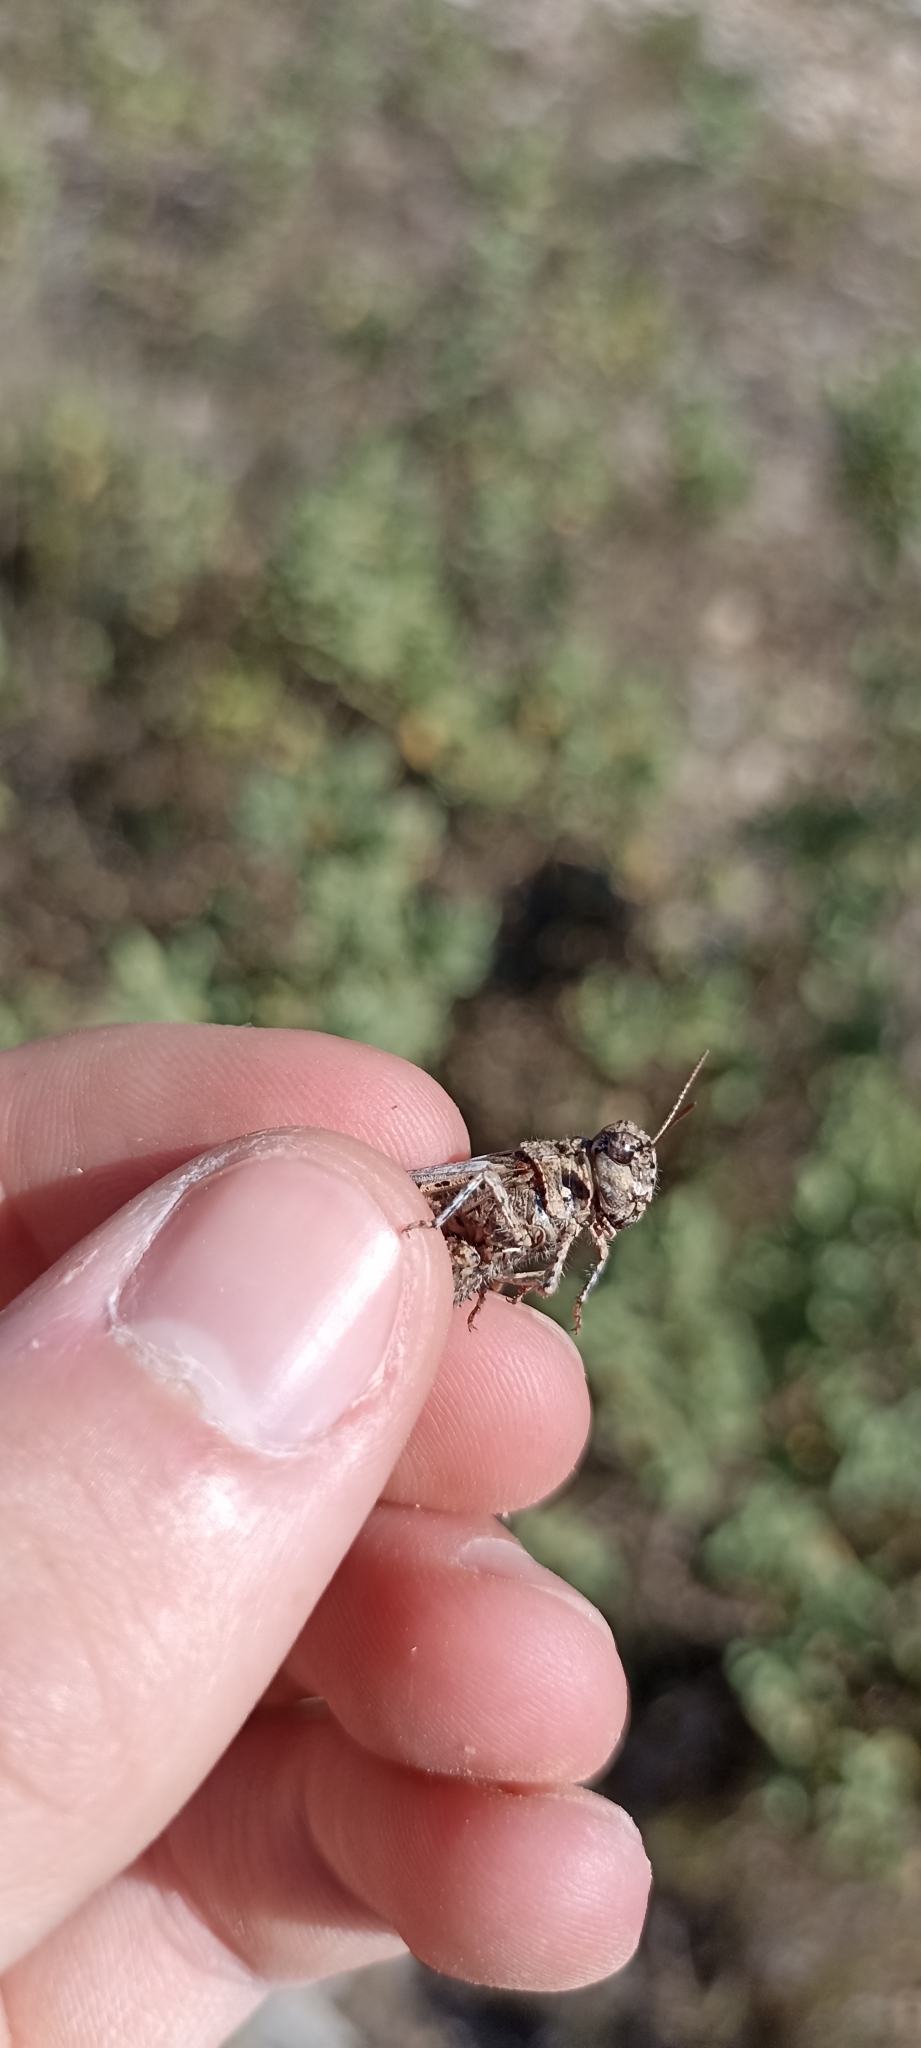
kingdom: Animalia
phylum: Arthropoda
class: Insecta
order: Orthoptera
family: Acrididae
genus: Acrotylus
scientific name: Acrotylus insubricus
